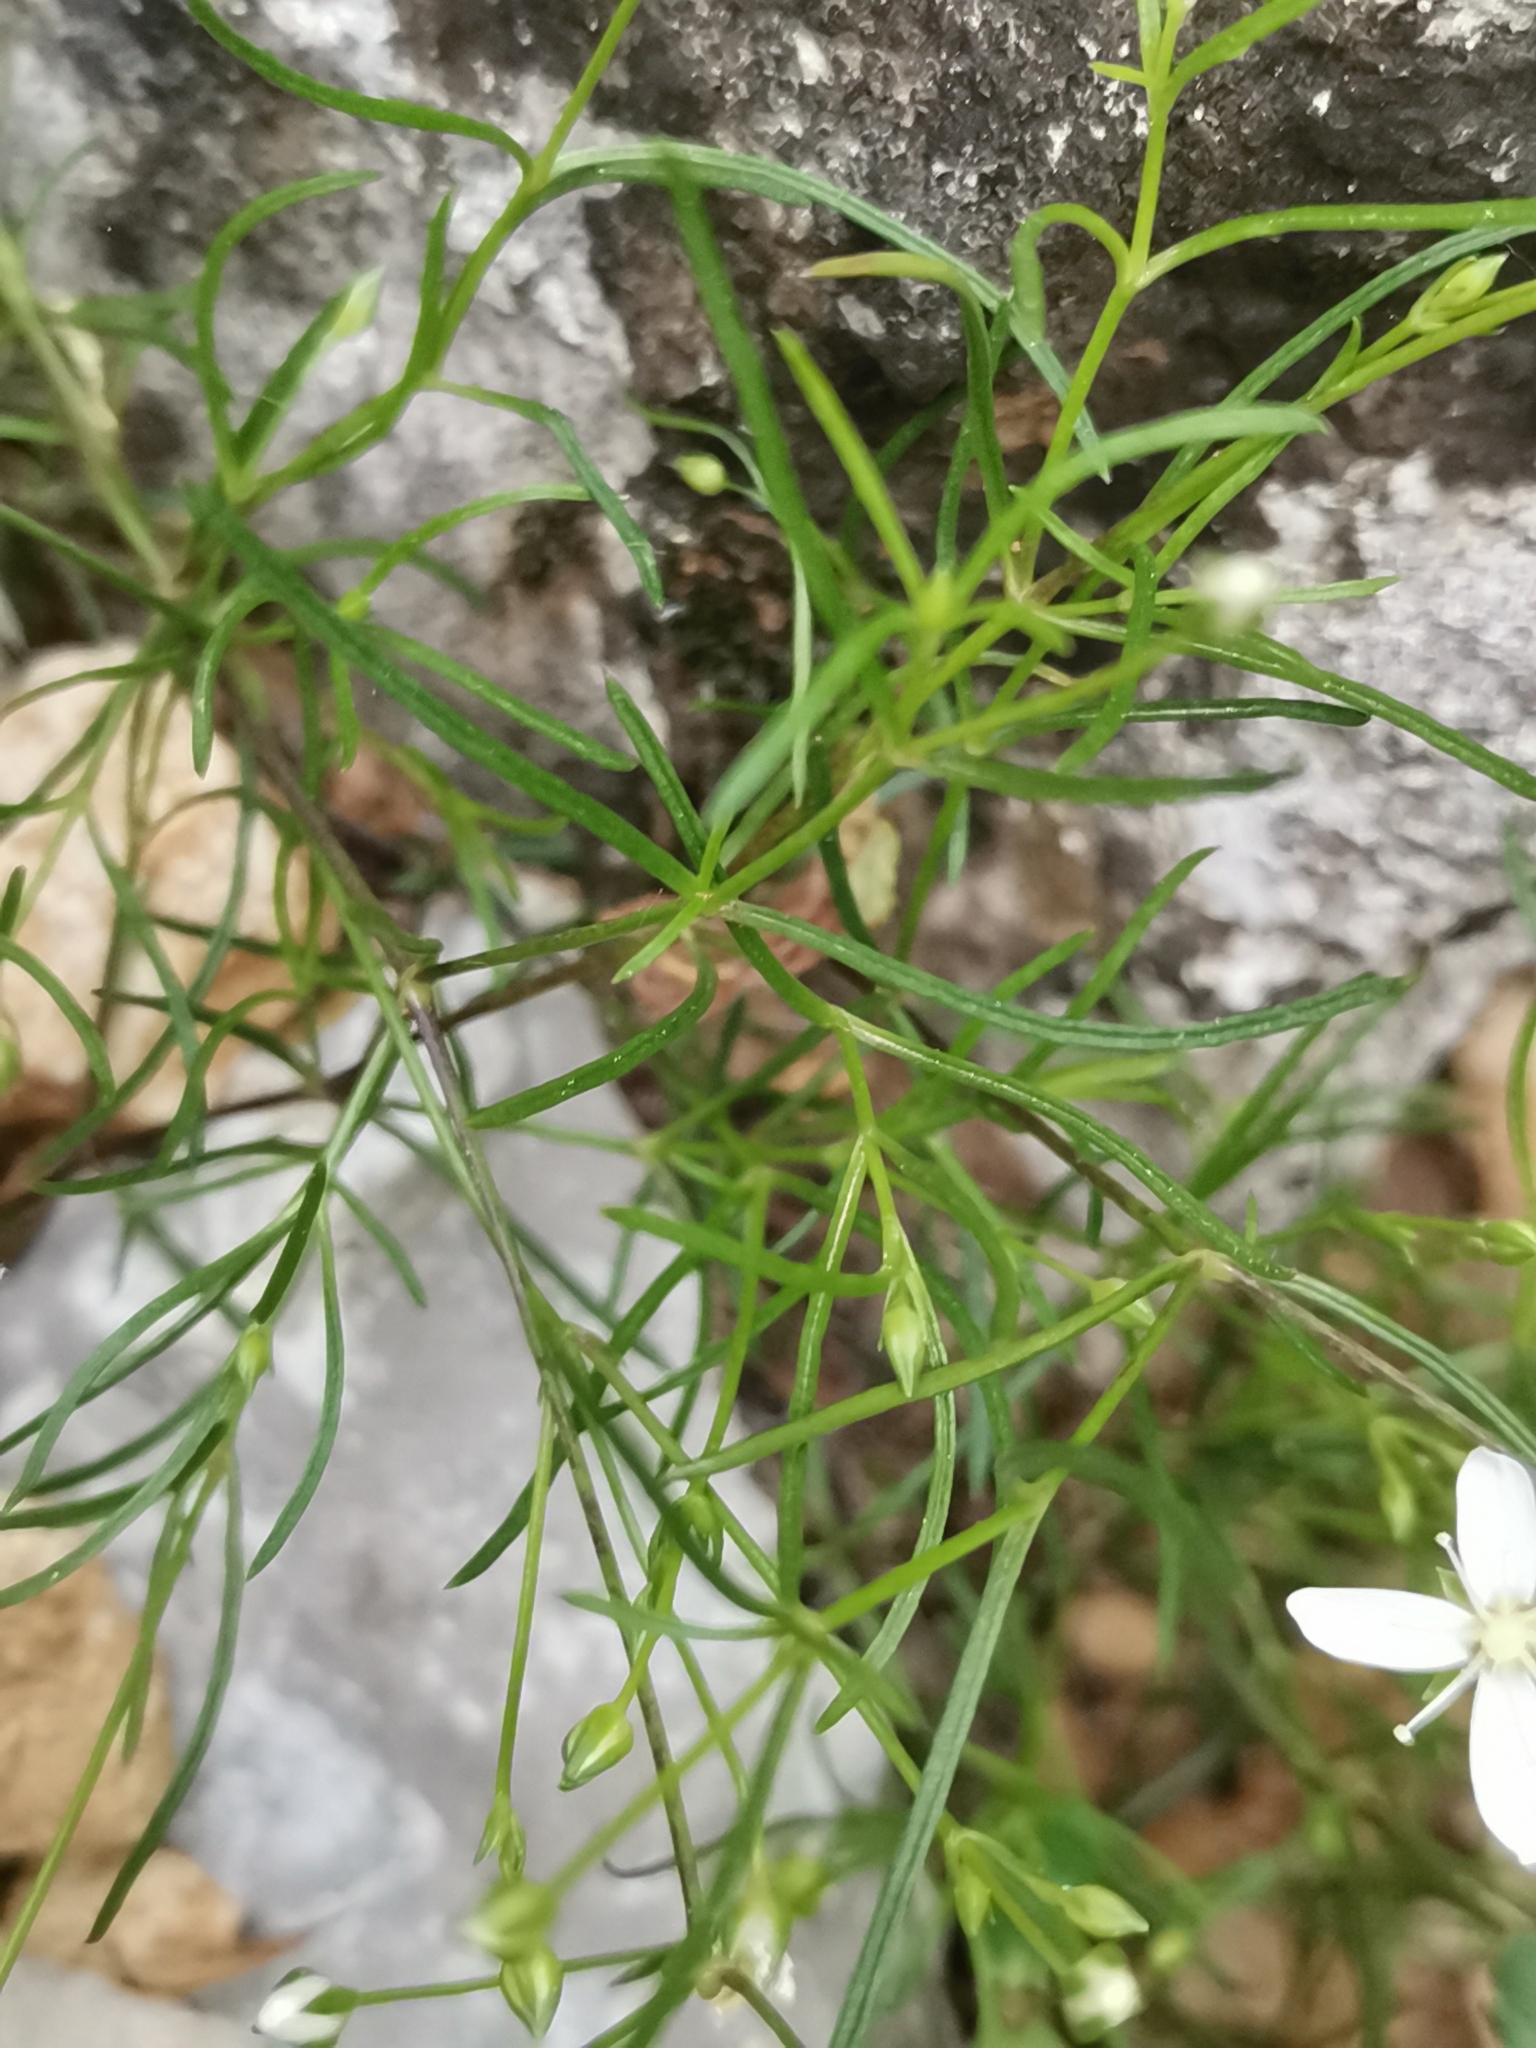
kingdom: Plantae
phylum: Tracheophyta
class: Magnoliopsida
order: Caryophyllales
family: Caryophyllaceae
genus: Moehringia
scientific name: Moehringia muscosa
